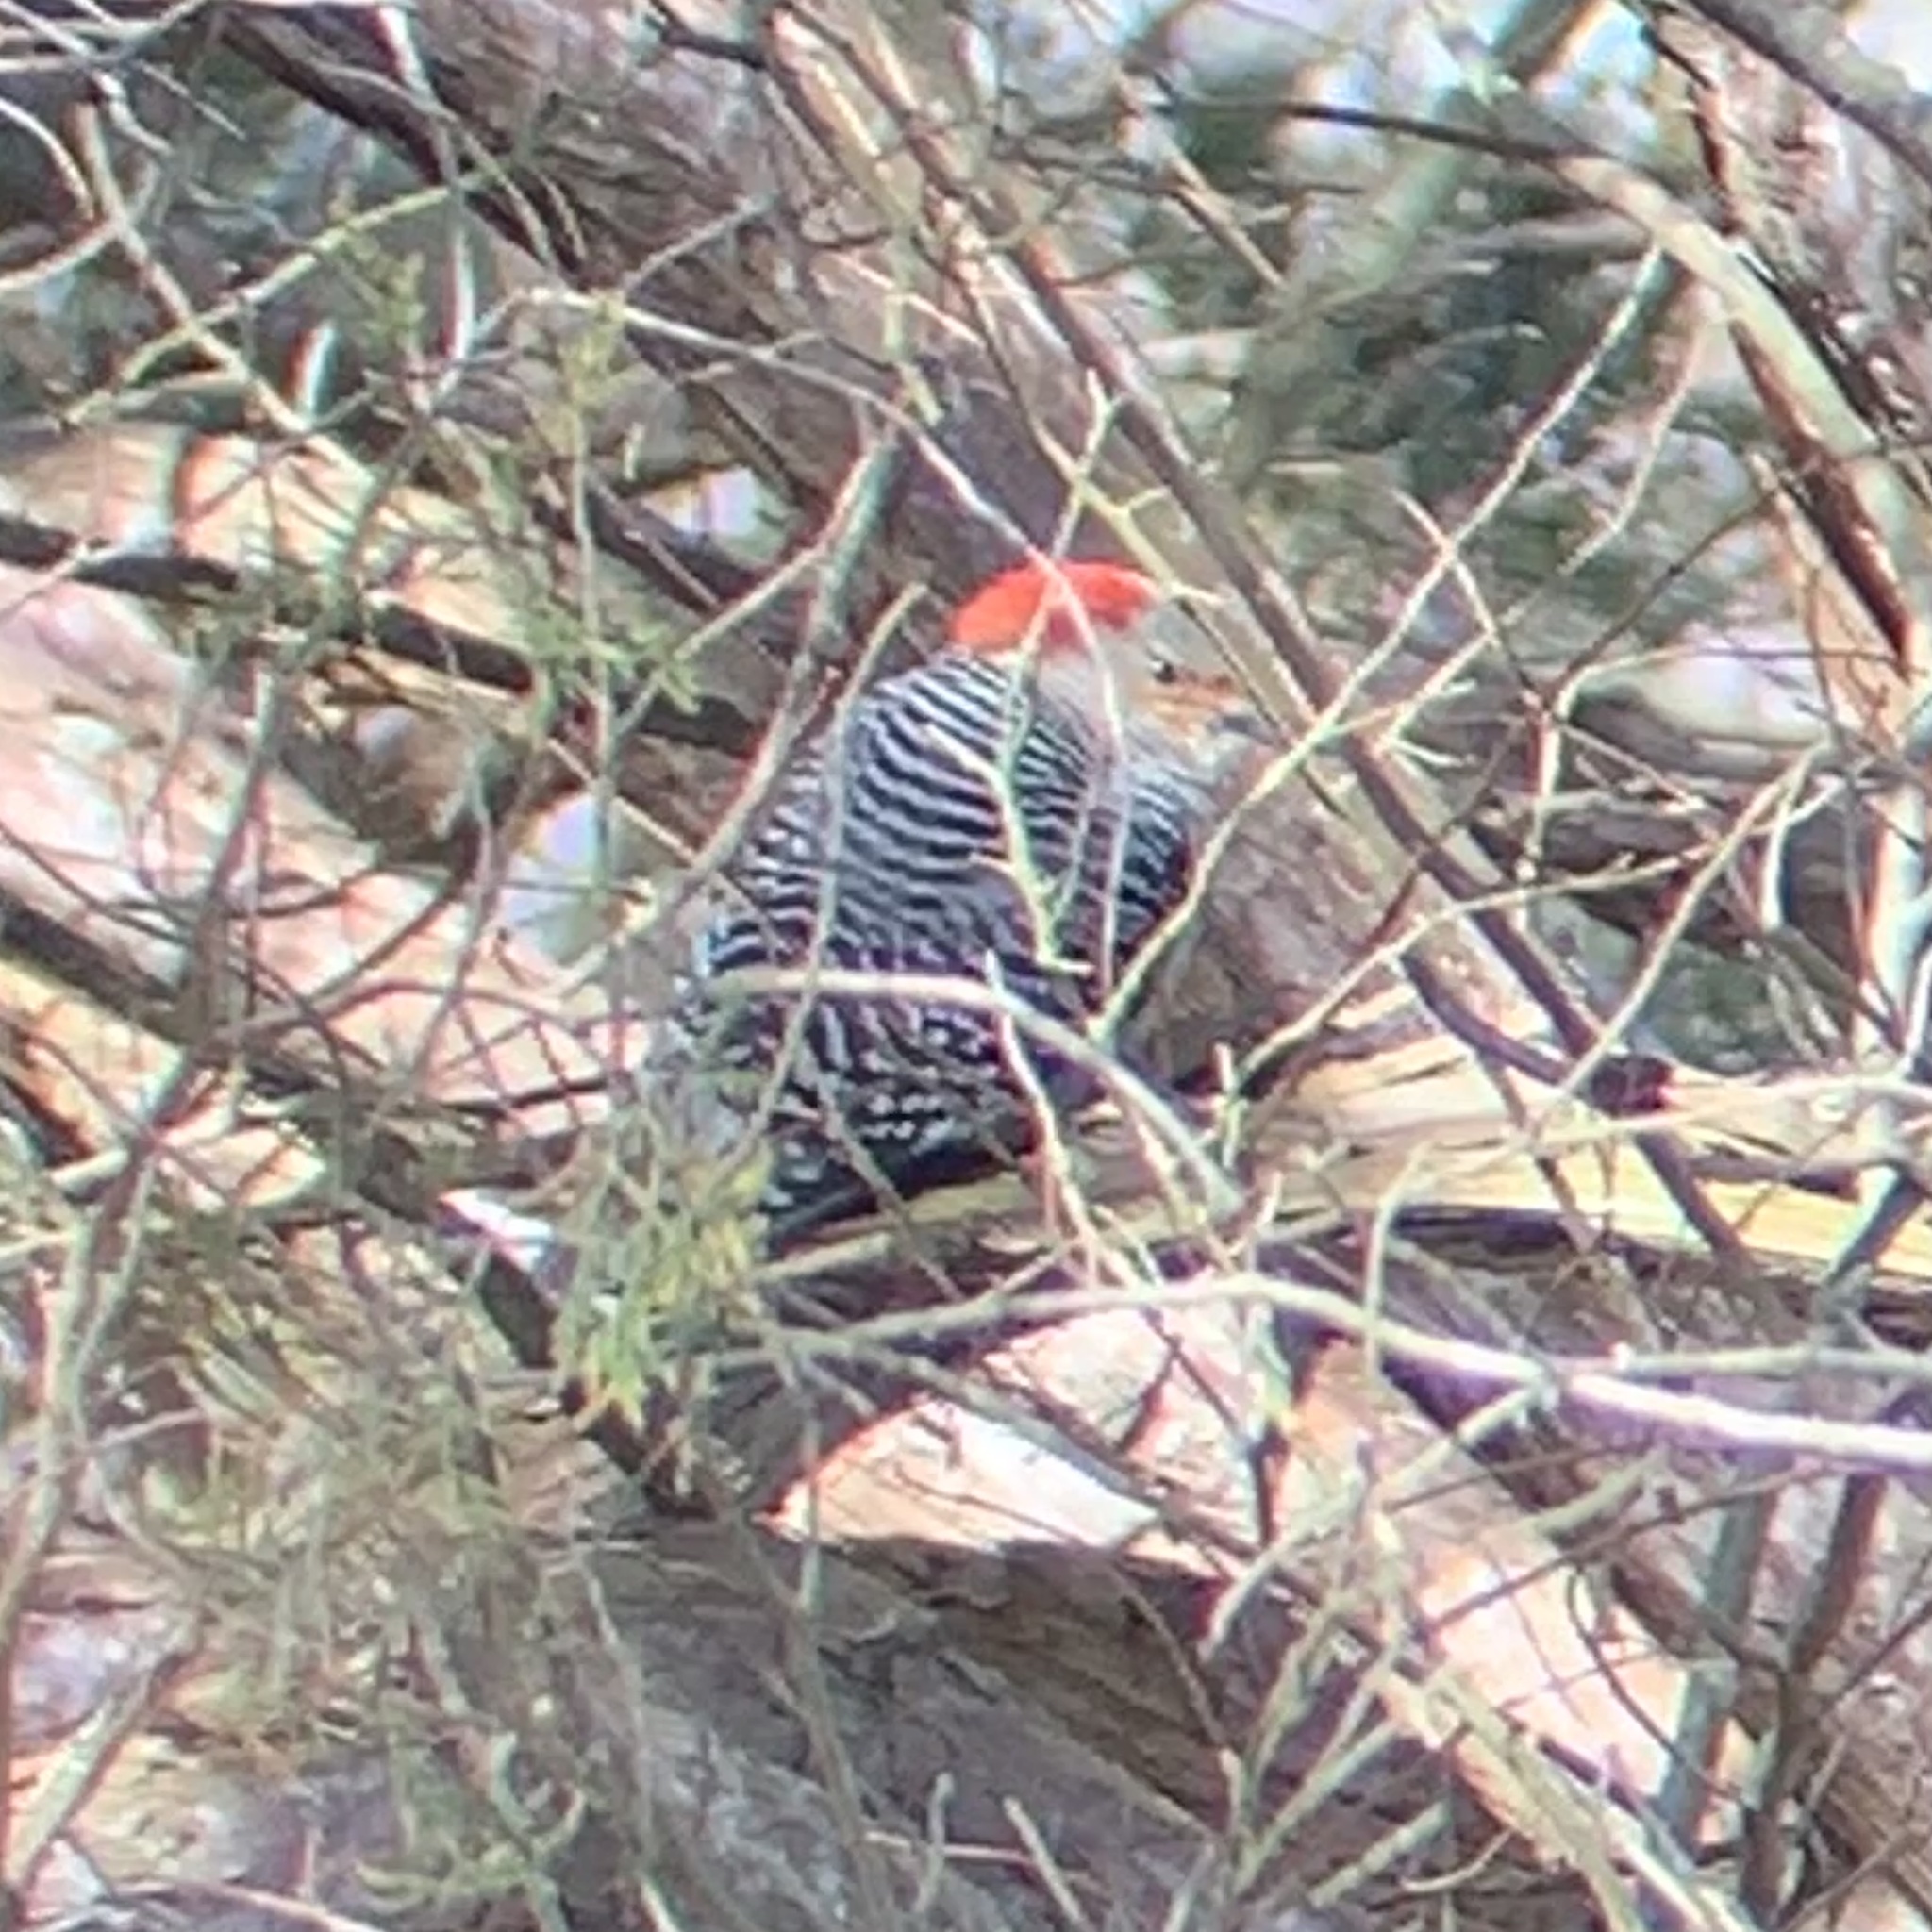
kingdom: Animalia
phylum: Chordata
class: Aves
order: Piciformes
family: Picidae
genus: Melanerpes
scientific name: Melanerpes carolinus
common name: Red-bellied woodpecker
